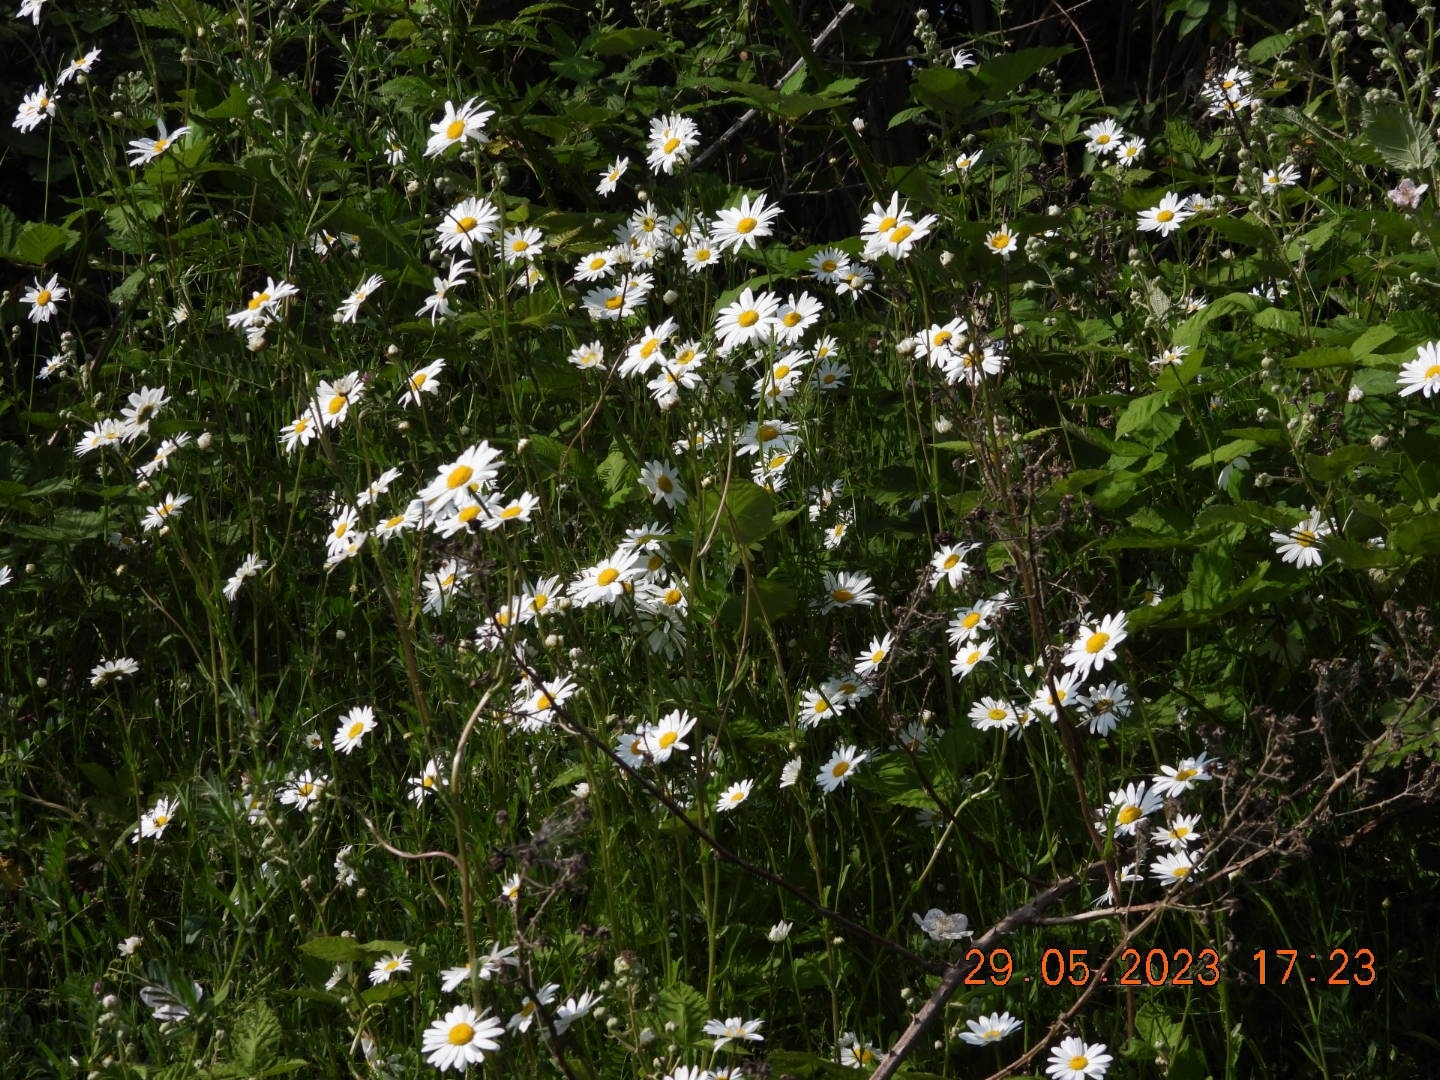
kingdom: Plantae
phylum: Tracheophyta
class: Magnoliopsida
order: Asterales
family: Asteraceae
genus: Leucanthemum
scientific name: Leucanthemum vulgare
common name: Oxeye daisy
